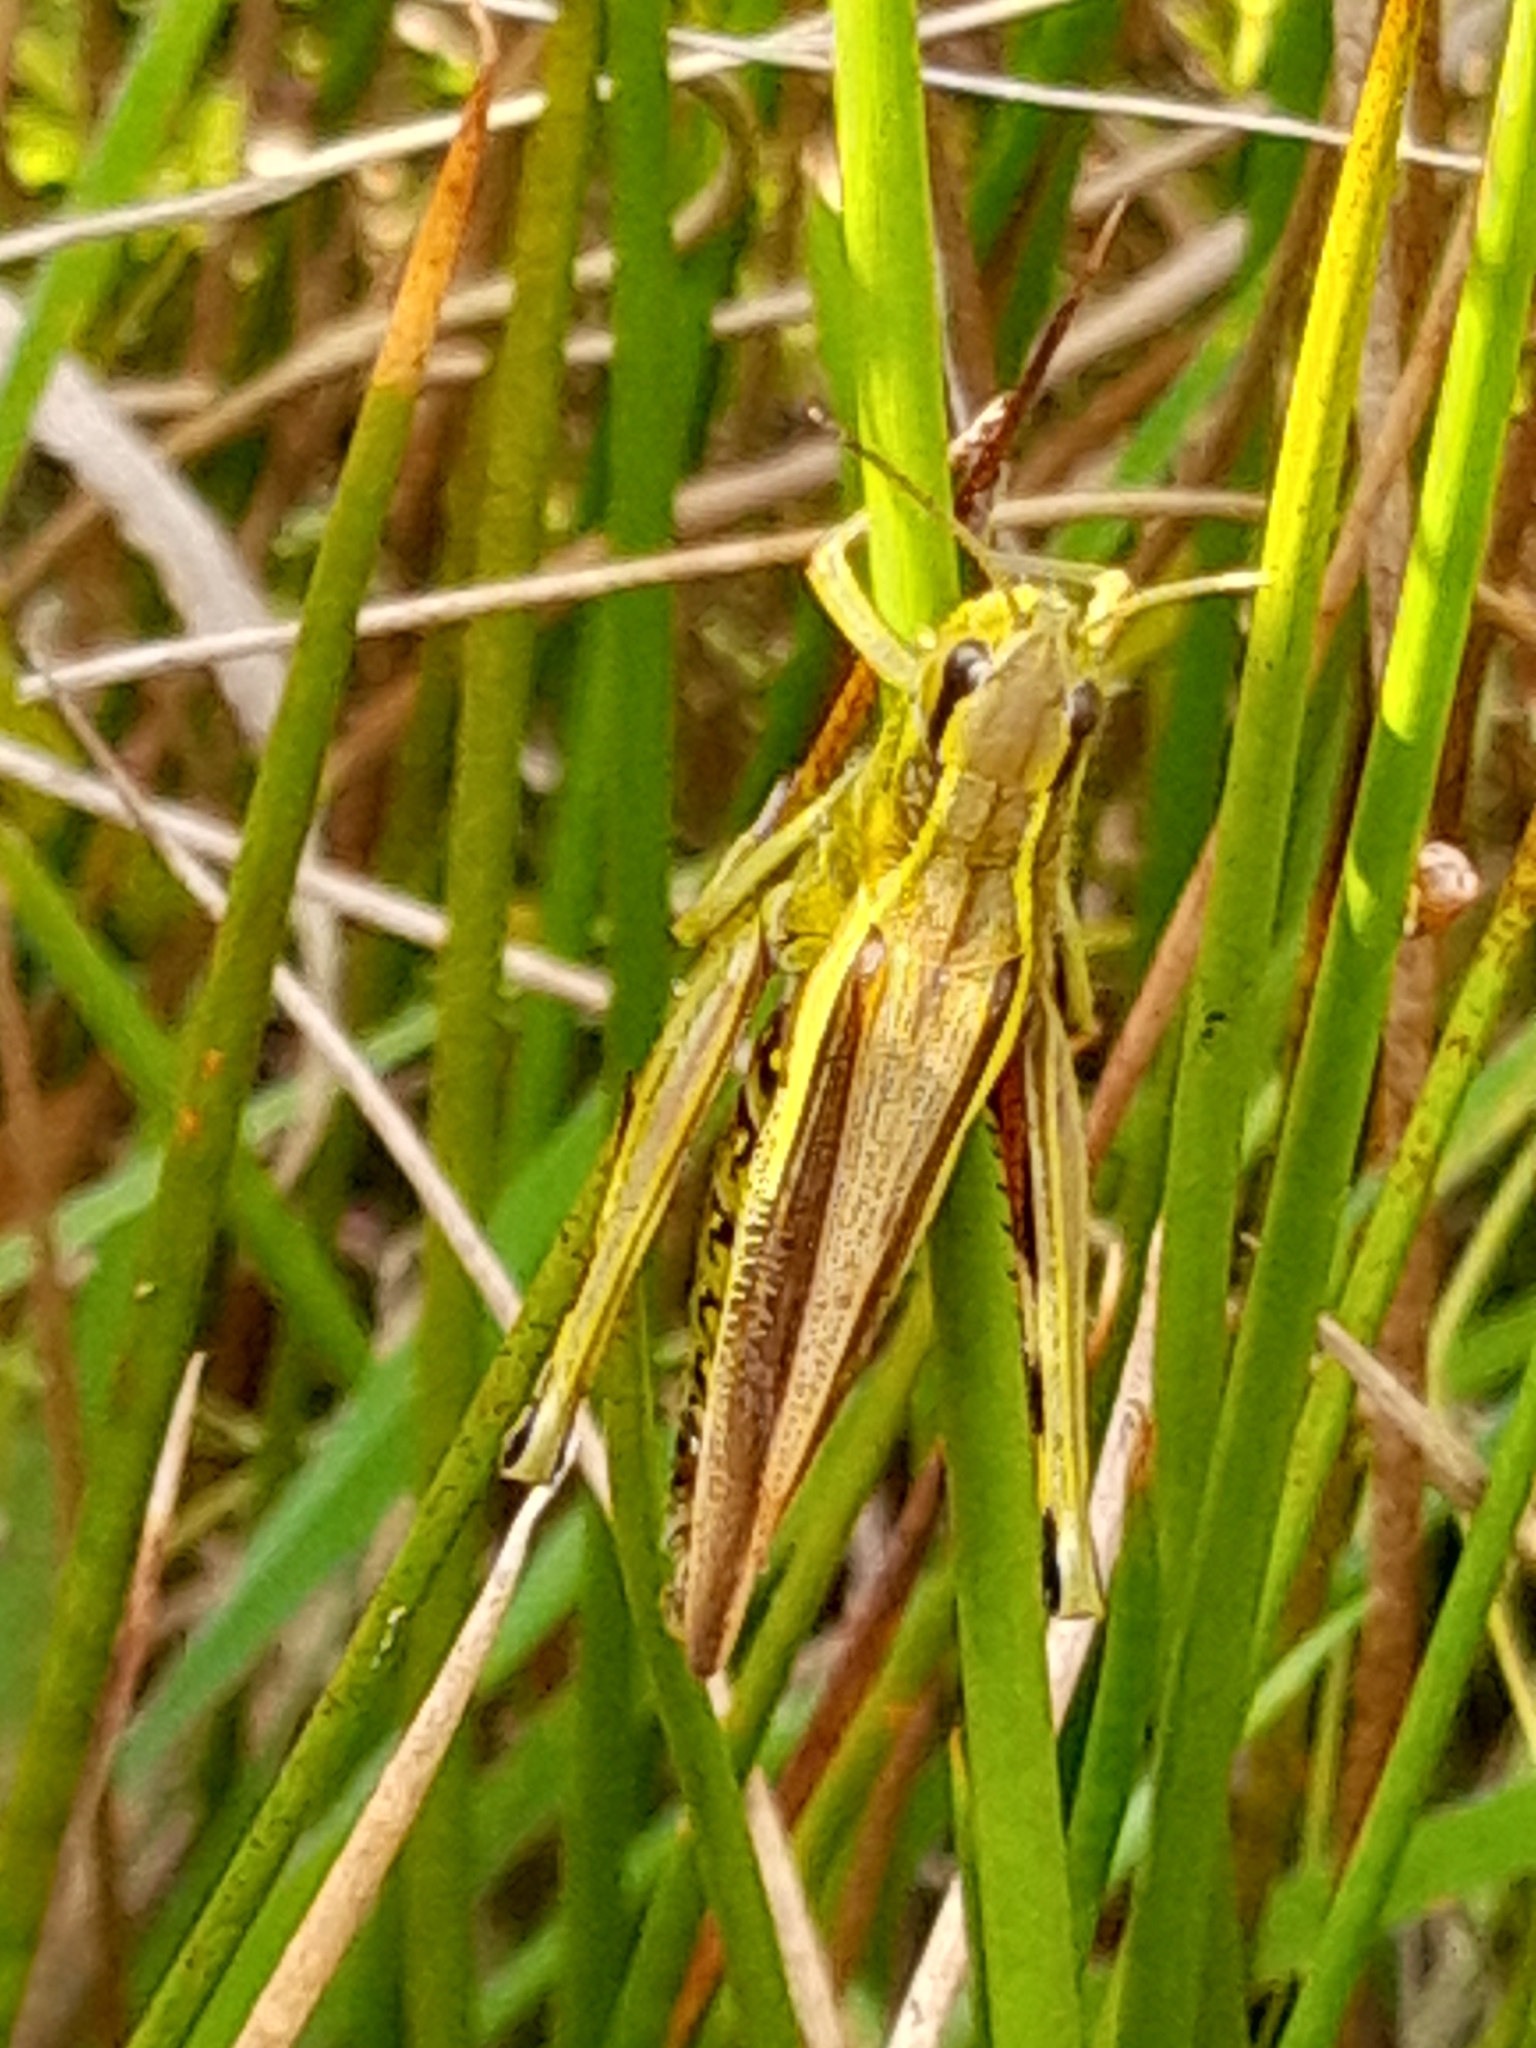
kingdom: Animalia
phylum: Arthropoda
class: Insecta
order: Orthoptera
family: Acrididae
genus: Stethophyma
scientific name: Stethophyma grossum
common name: Large marsh grasshopper
